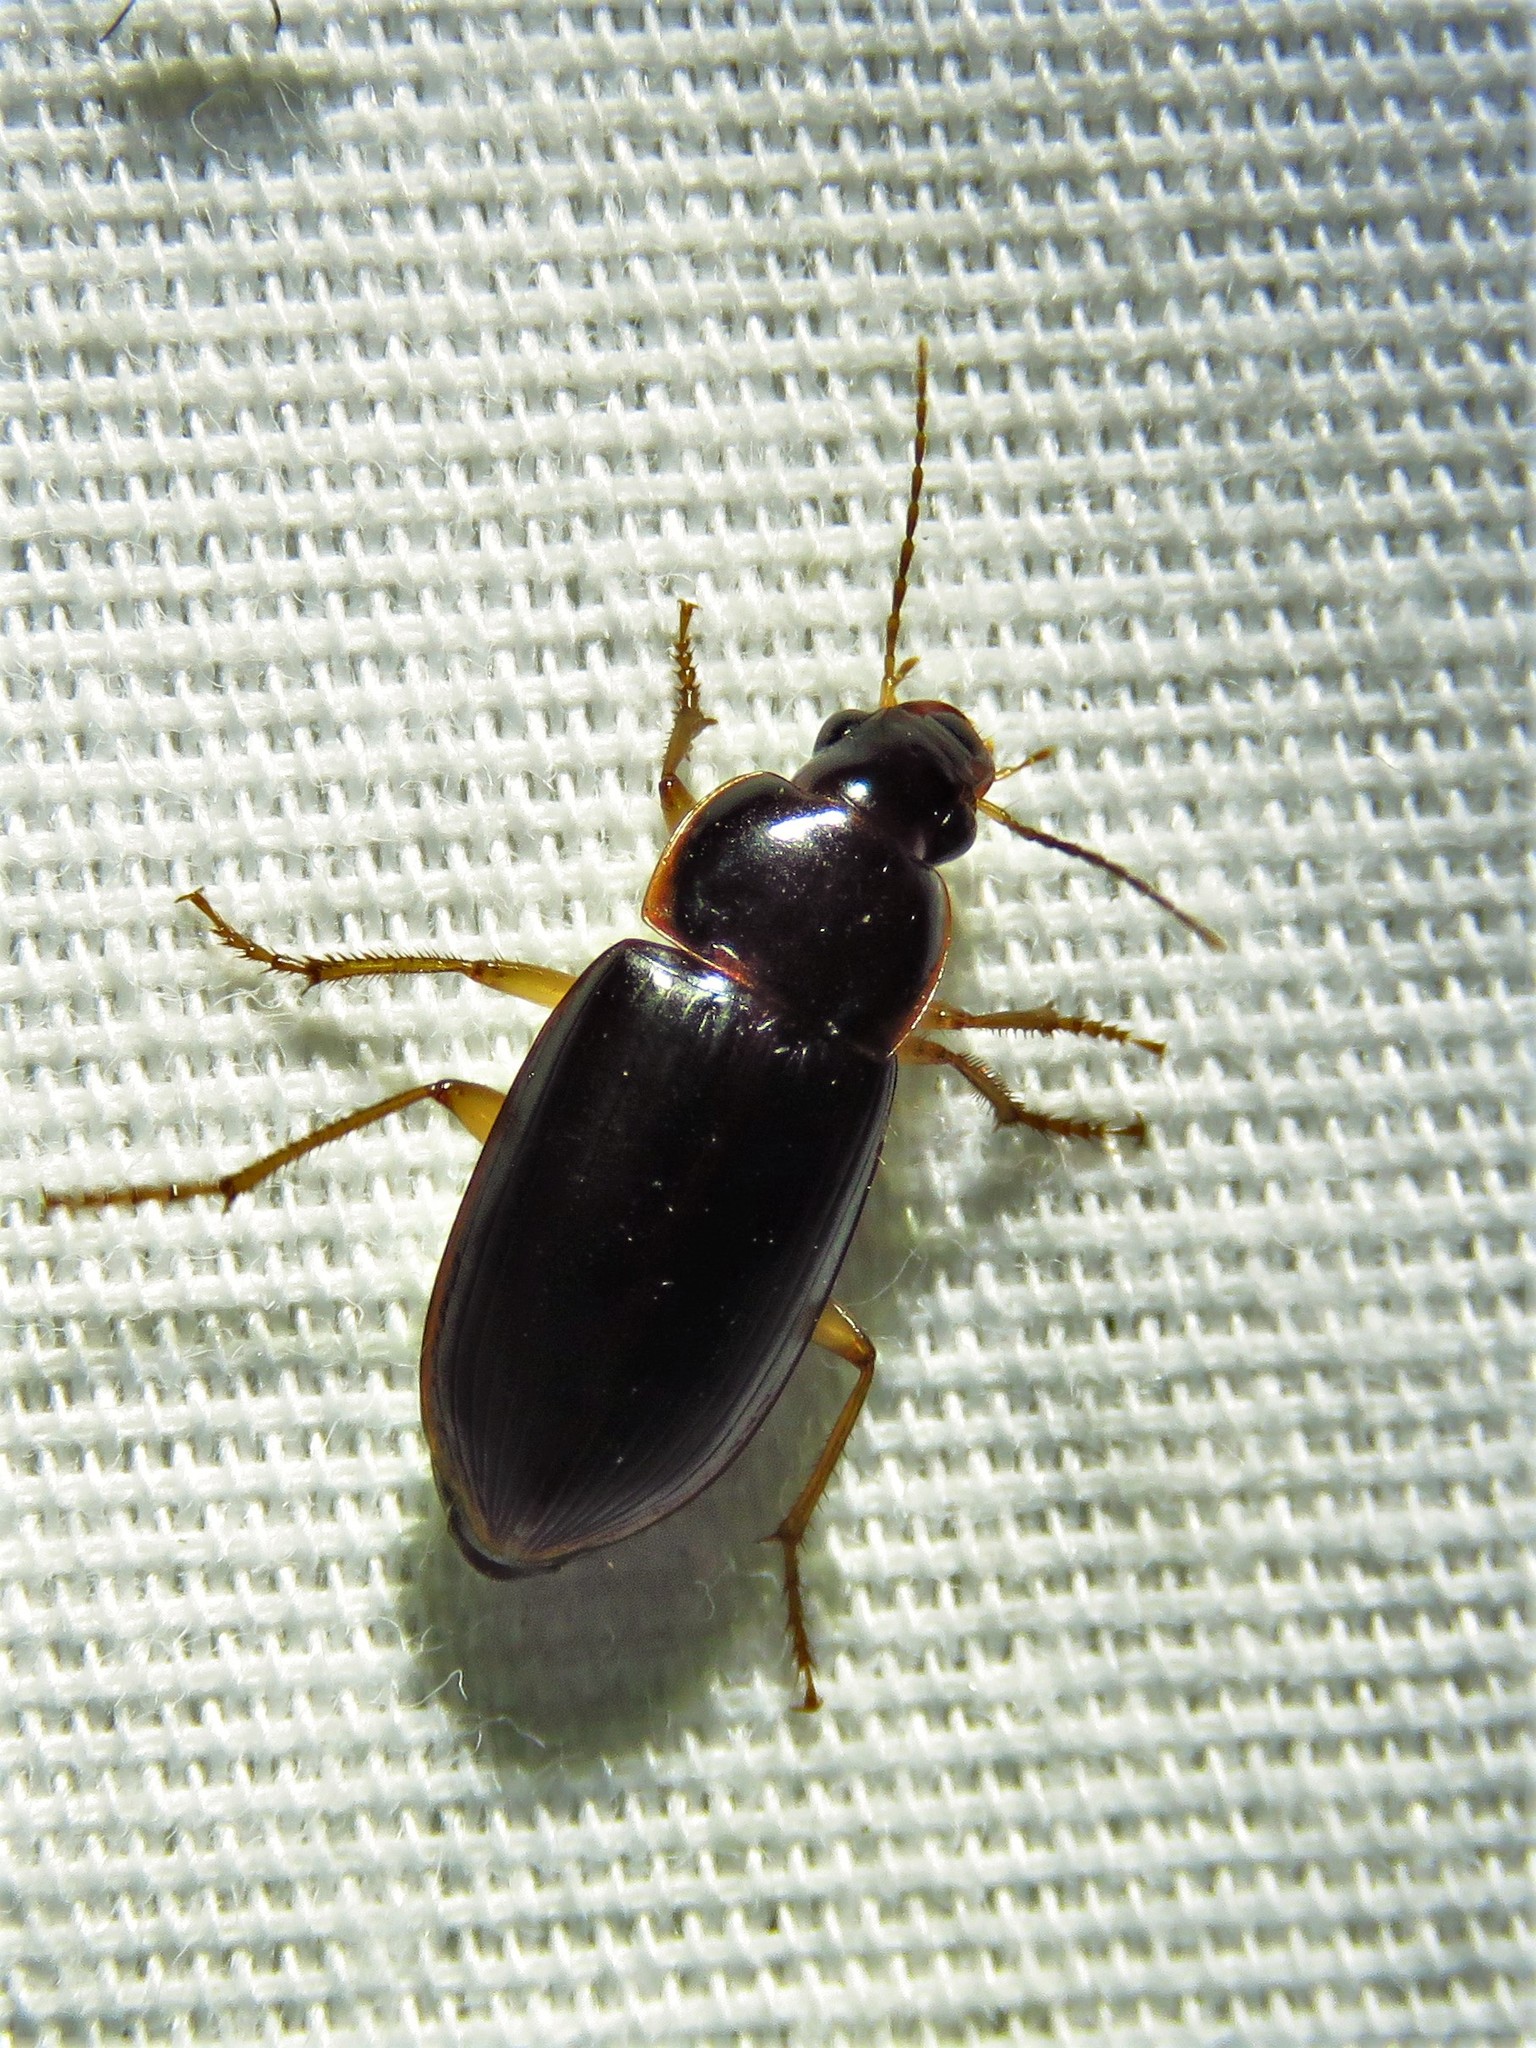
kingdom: Animalia
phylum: Arthropoda
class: Insecta
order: Coleoptera
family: Carabidae
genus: Notiobia
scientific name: Notiobia terminata
